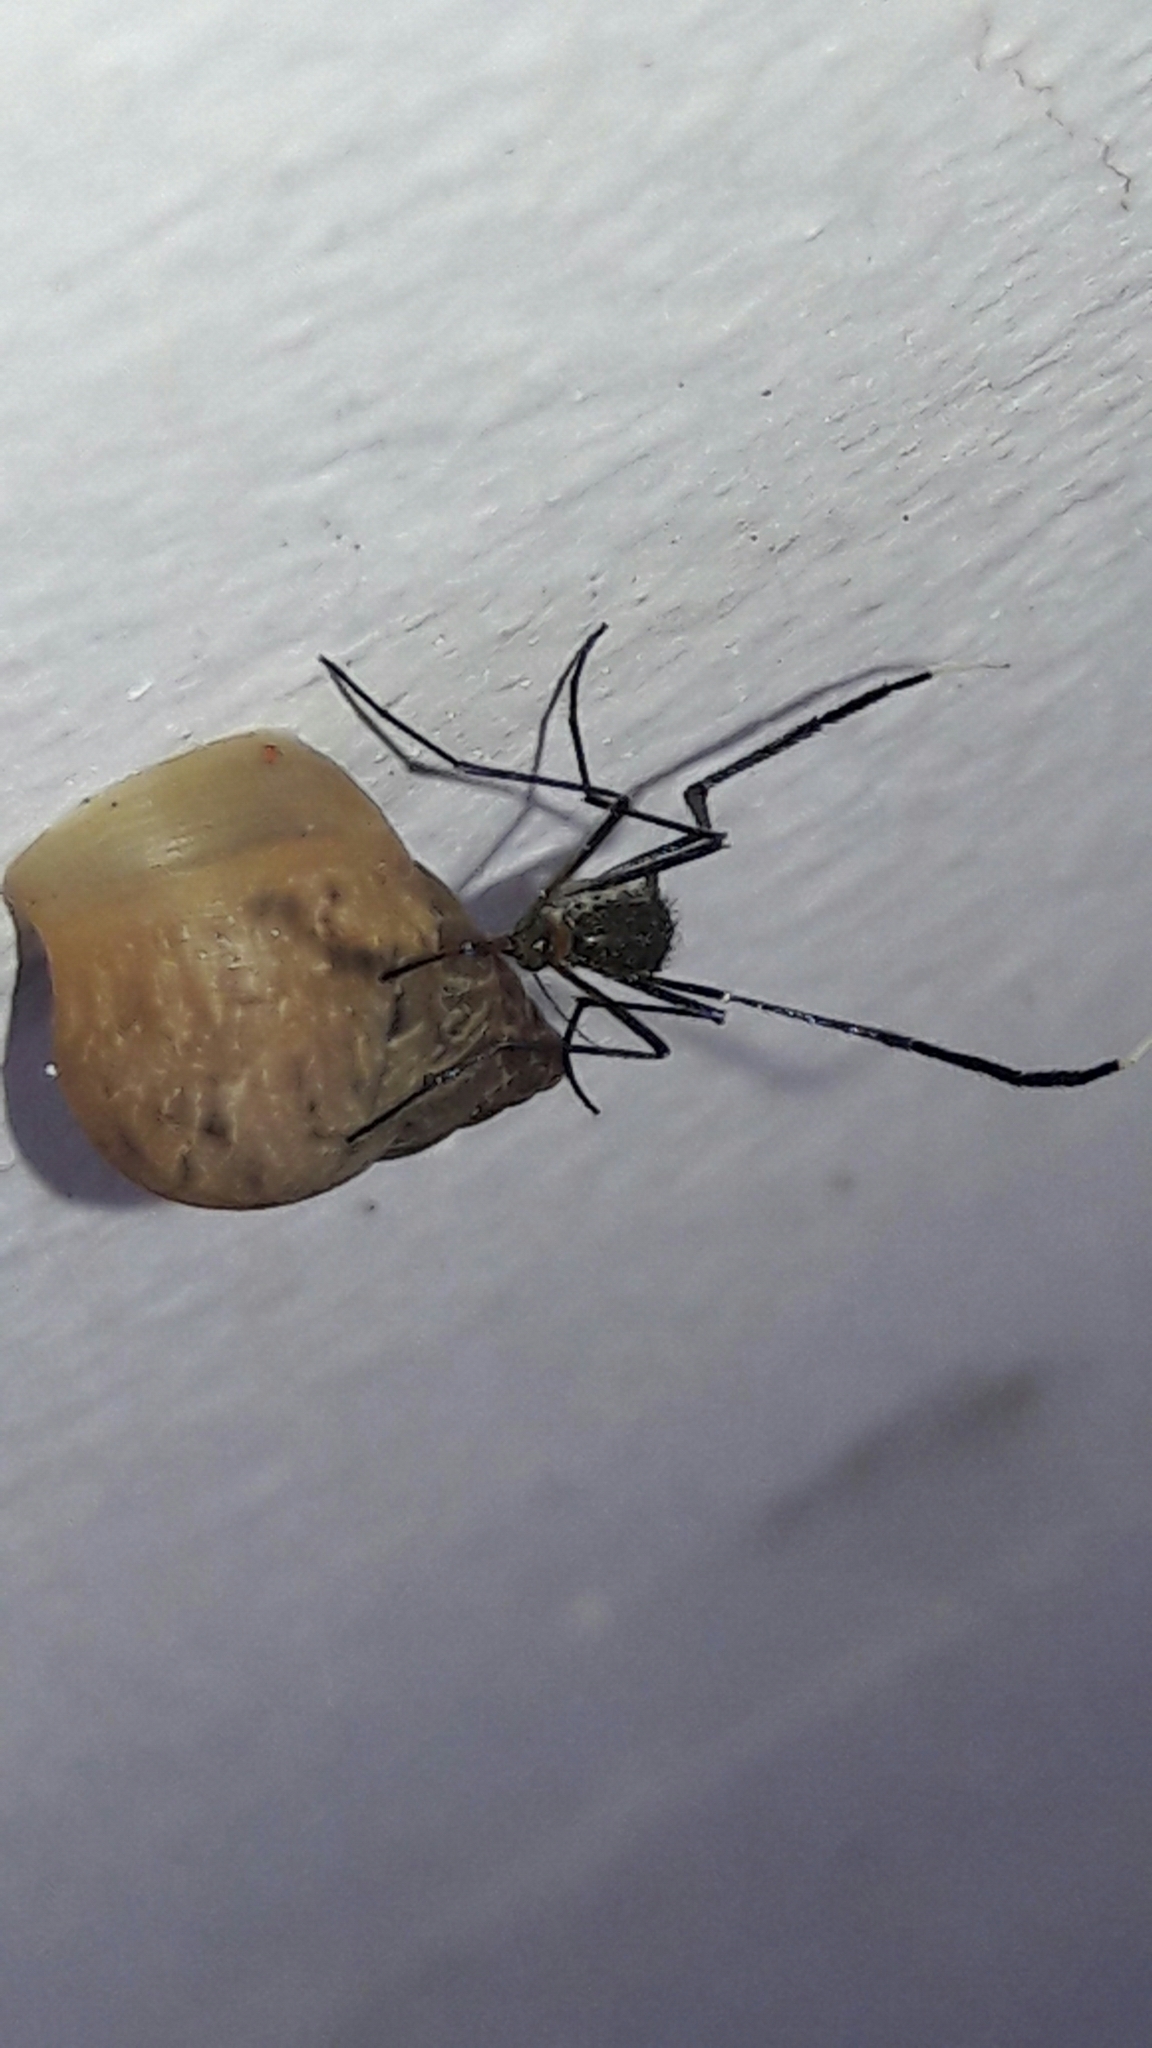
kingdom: Animalia
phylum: Arthropoda
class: Insecta
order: Diptera
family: Culicidae
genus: Psorophora
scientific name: Psorophora ferox
